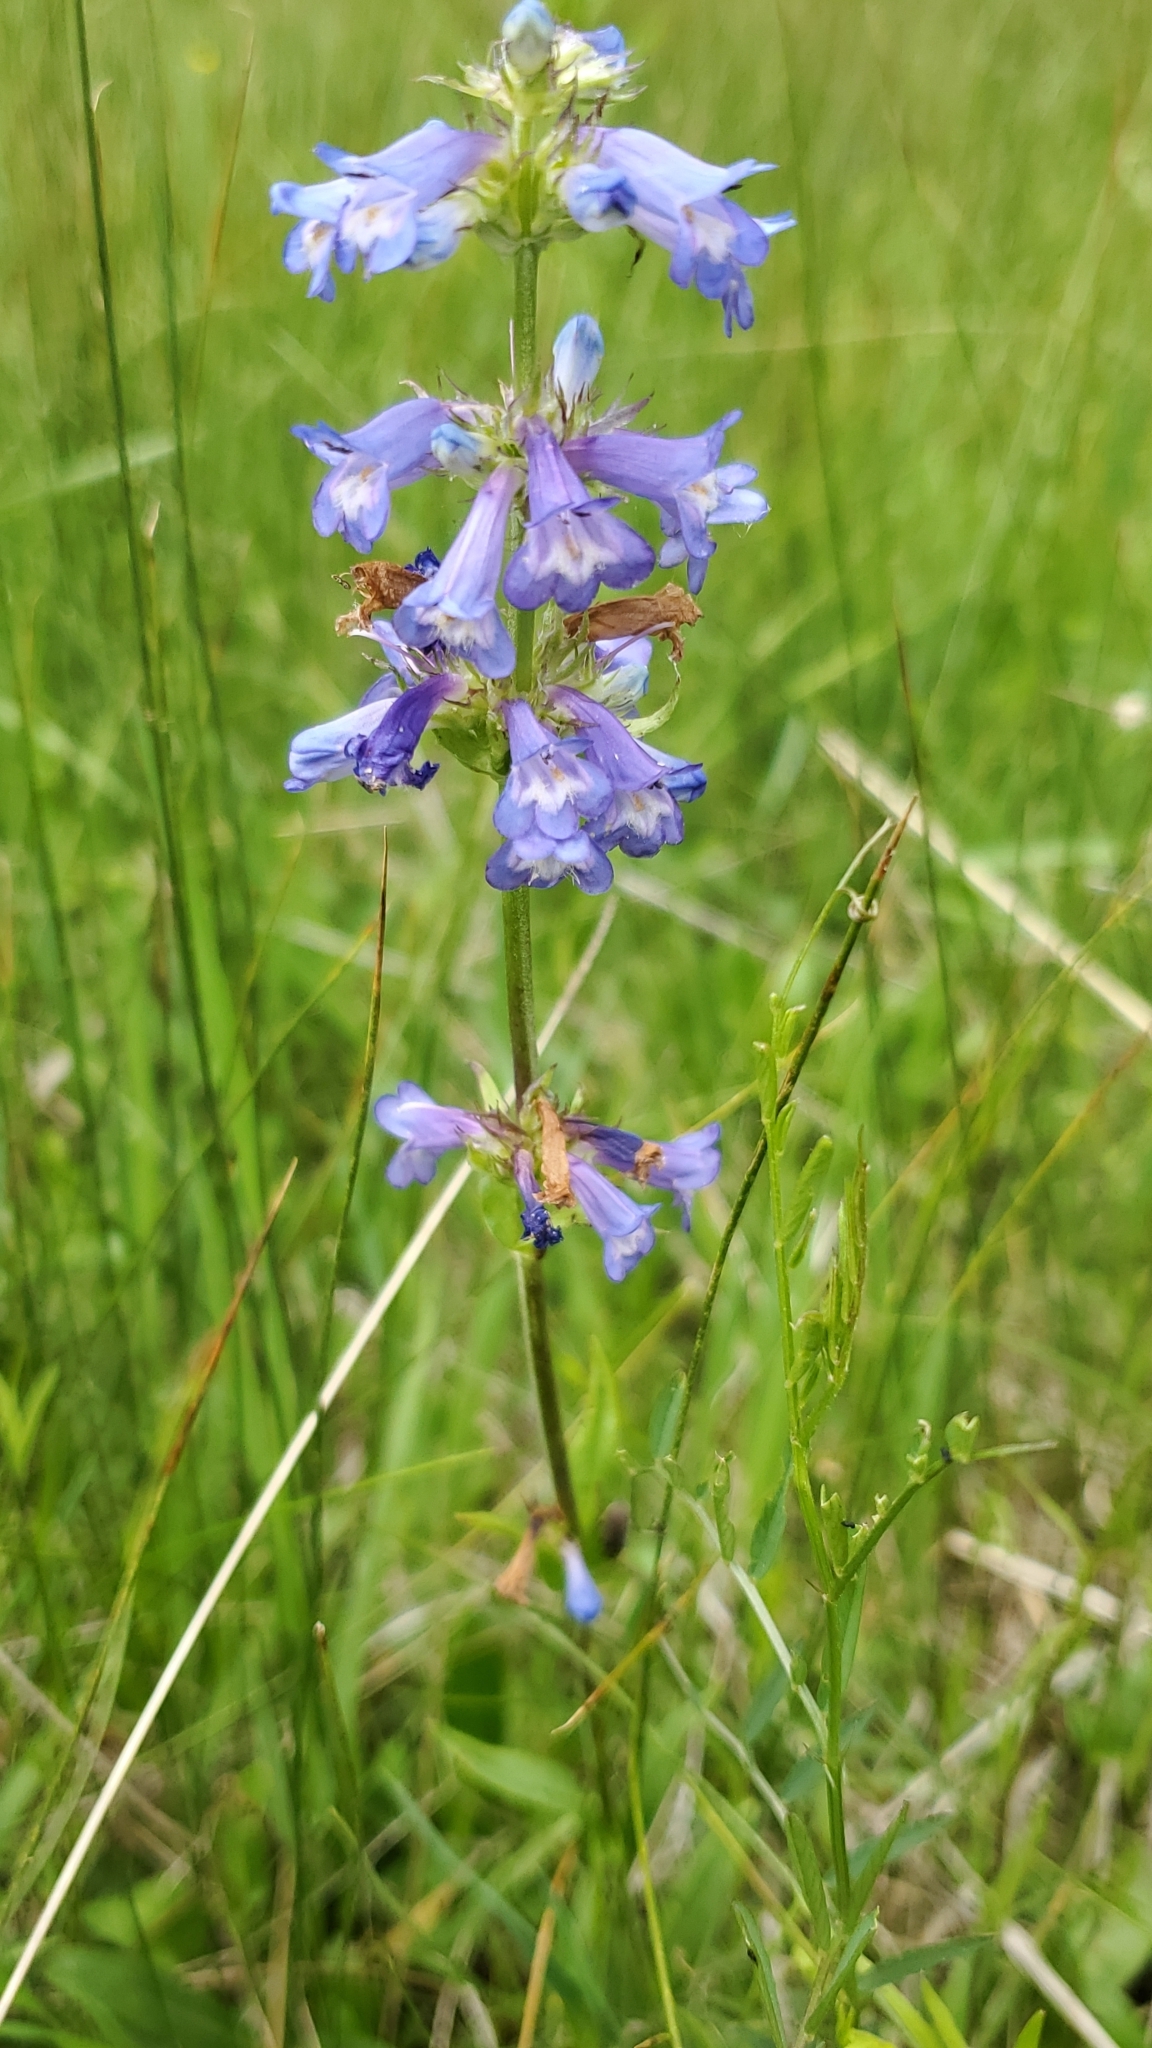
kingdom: Plantae
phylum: Tracheophyta
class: Magnoliopsida
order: Lamiales
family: Plantaginaceae
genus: Penstemon
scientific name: Penstemon rydbergii
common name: Rydberg's beardtongue
